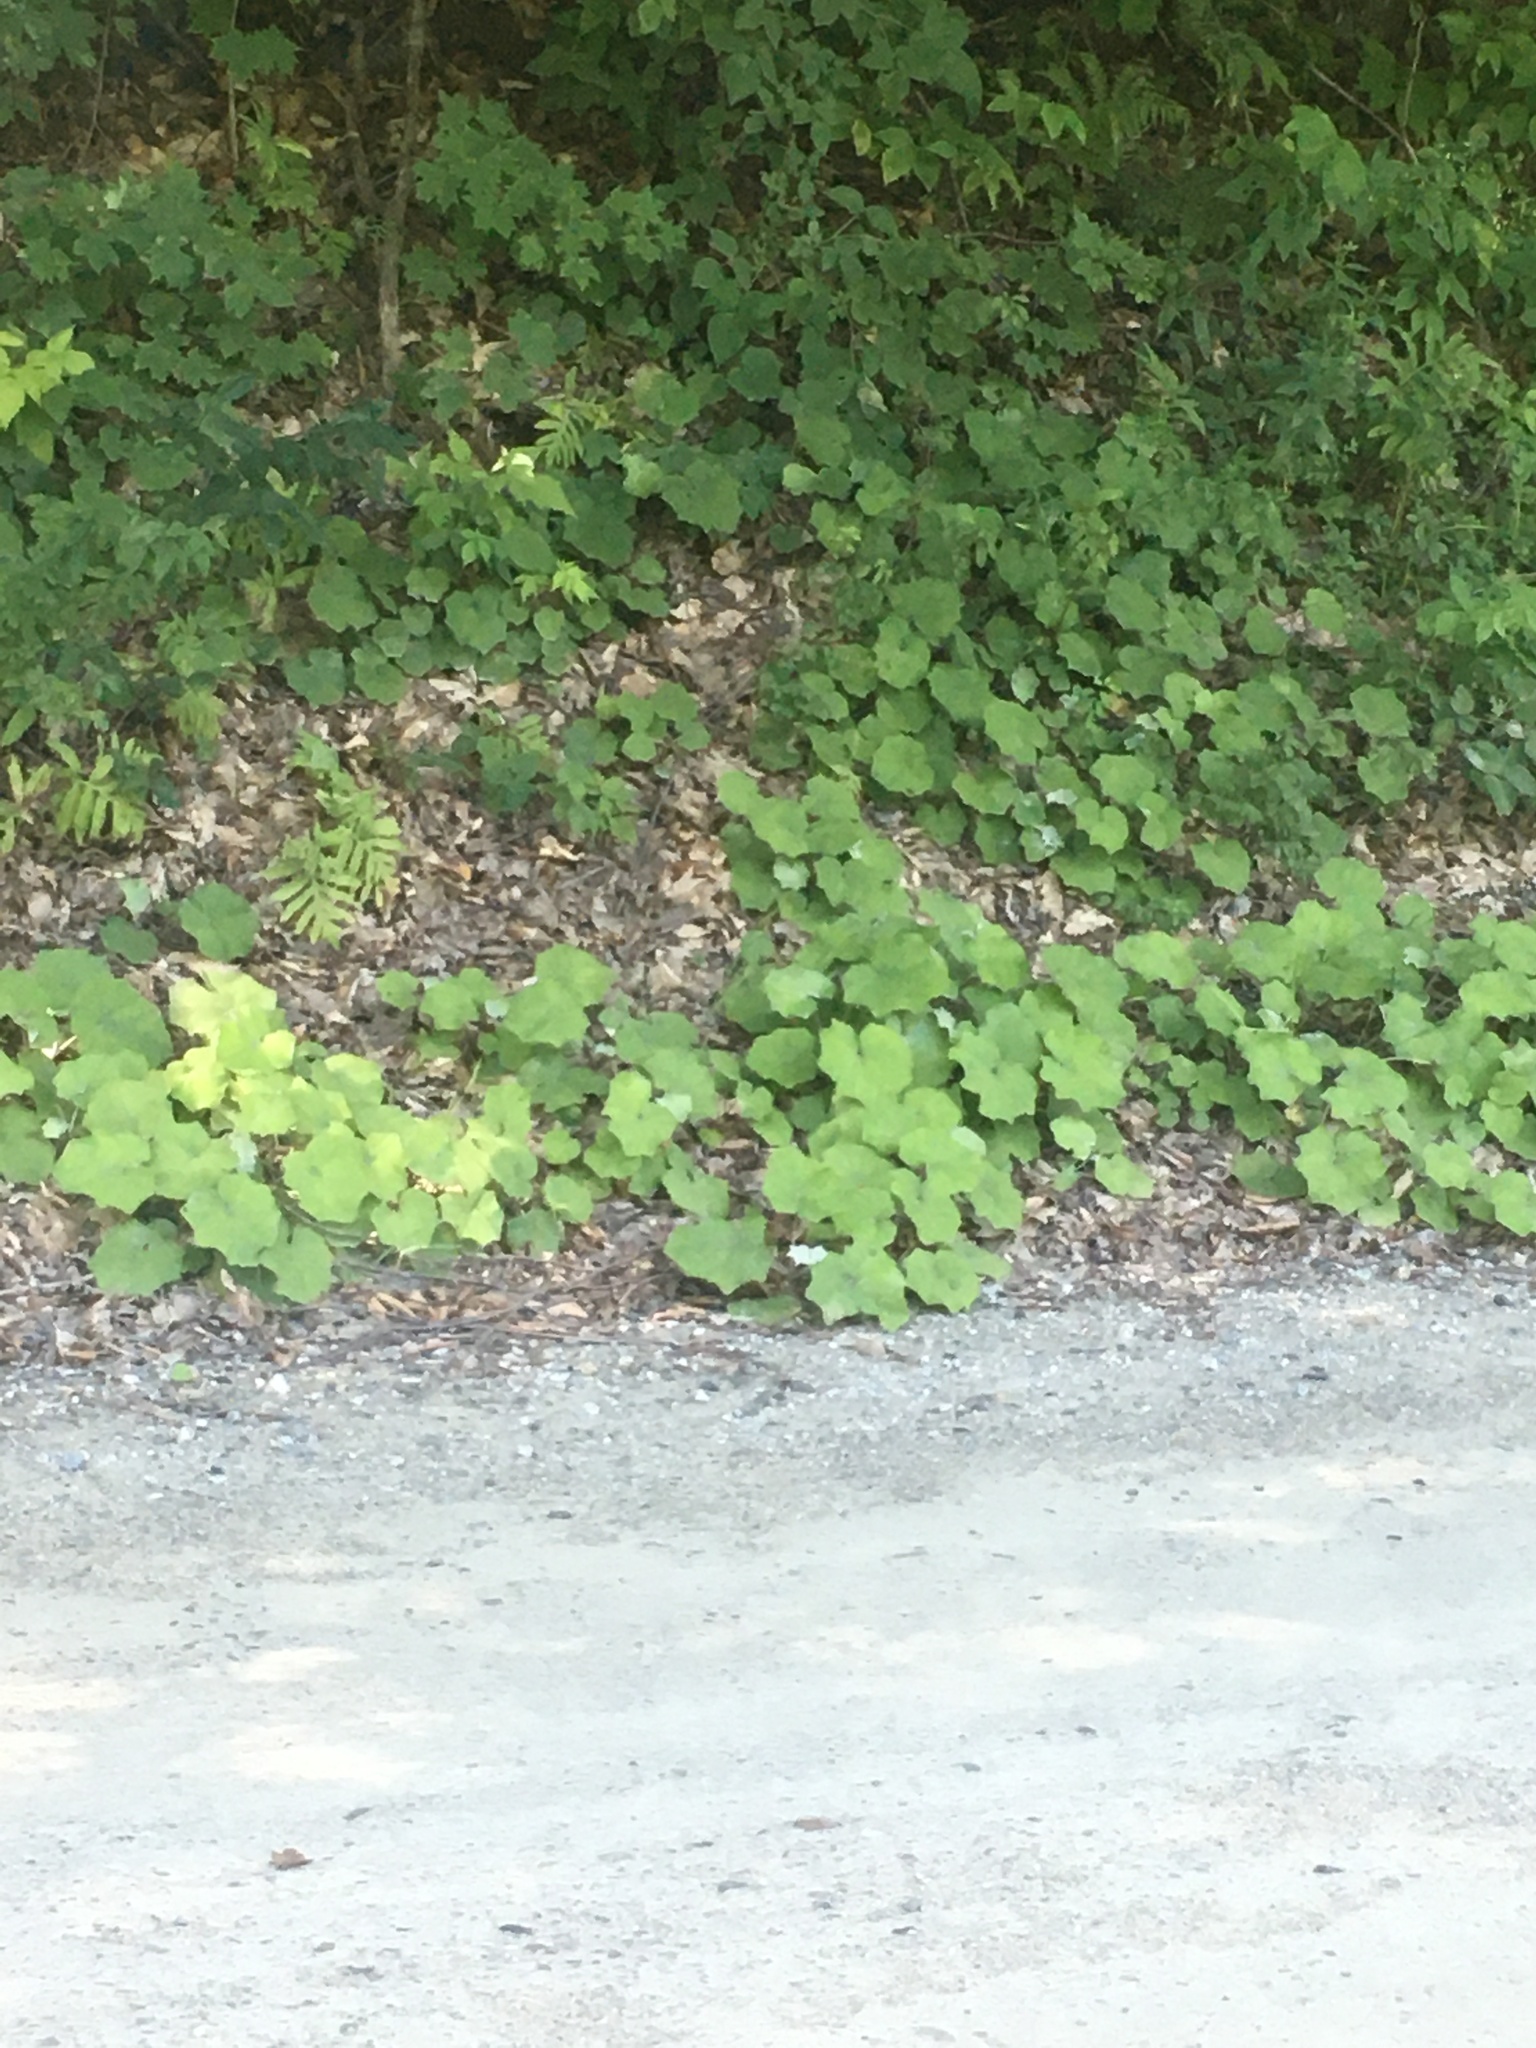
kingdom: Plantae
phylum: Tracheophyta
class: Magnoliopsida
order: Asterales
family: Asteraceae
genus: Tussilago
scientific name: Tussilago farfara
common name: Coltsfoot
